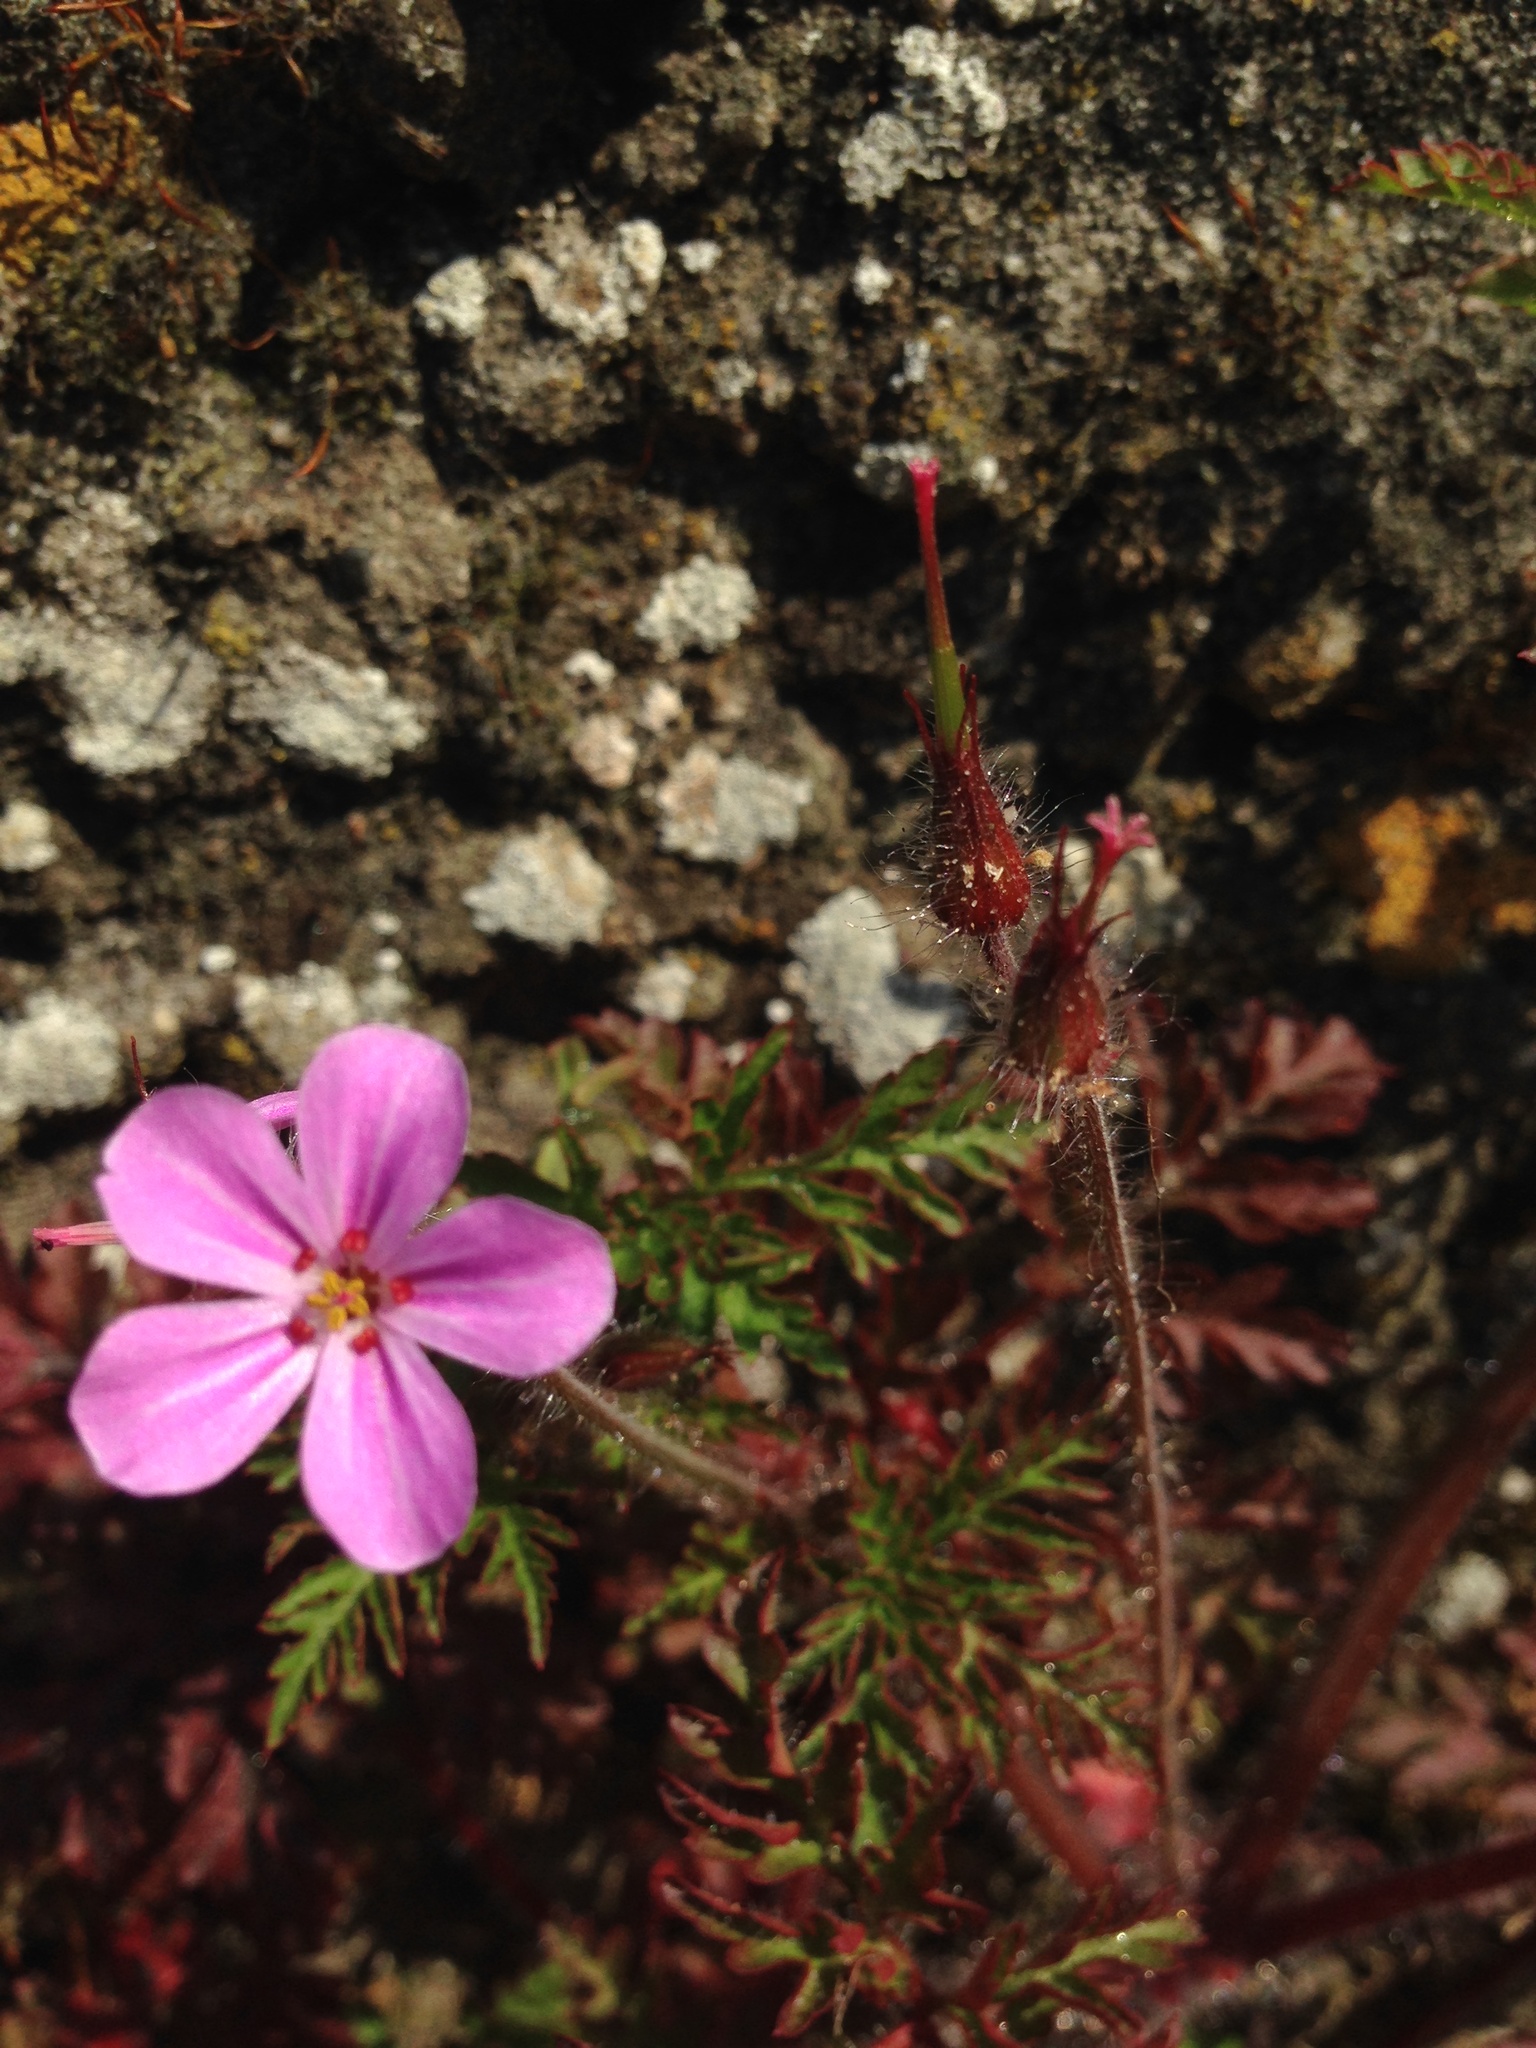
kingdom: Plantae
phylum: Tracheophyta
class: Magnoliopsida
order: Geraniales
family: Geraniaceae
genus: Geranium
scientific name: Geranium robertianum
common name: Herb-robert
